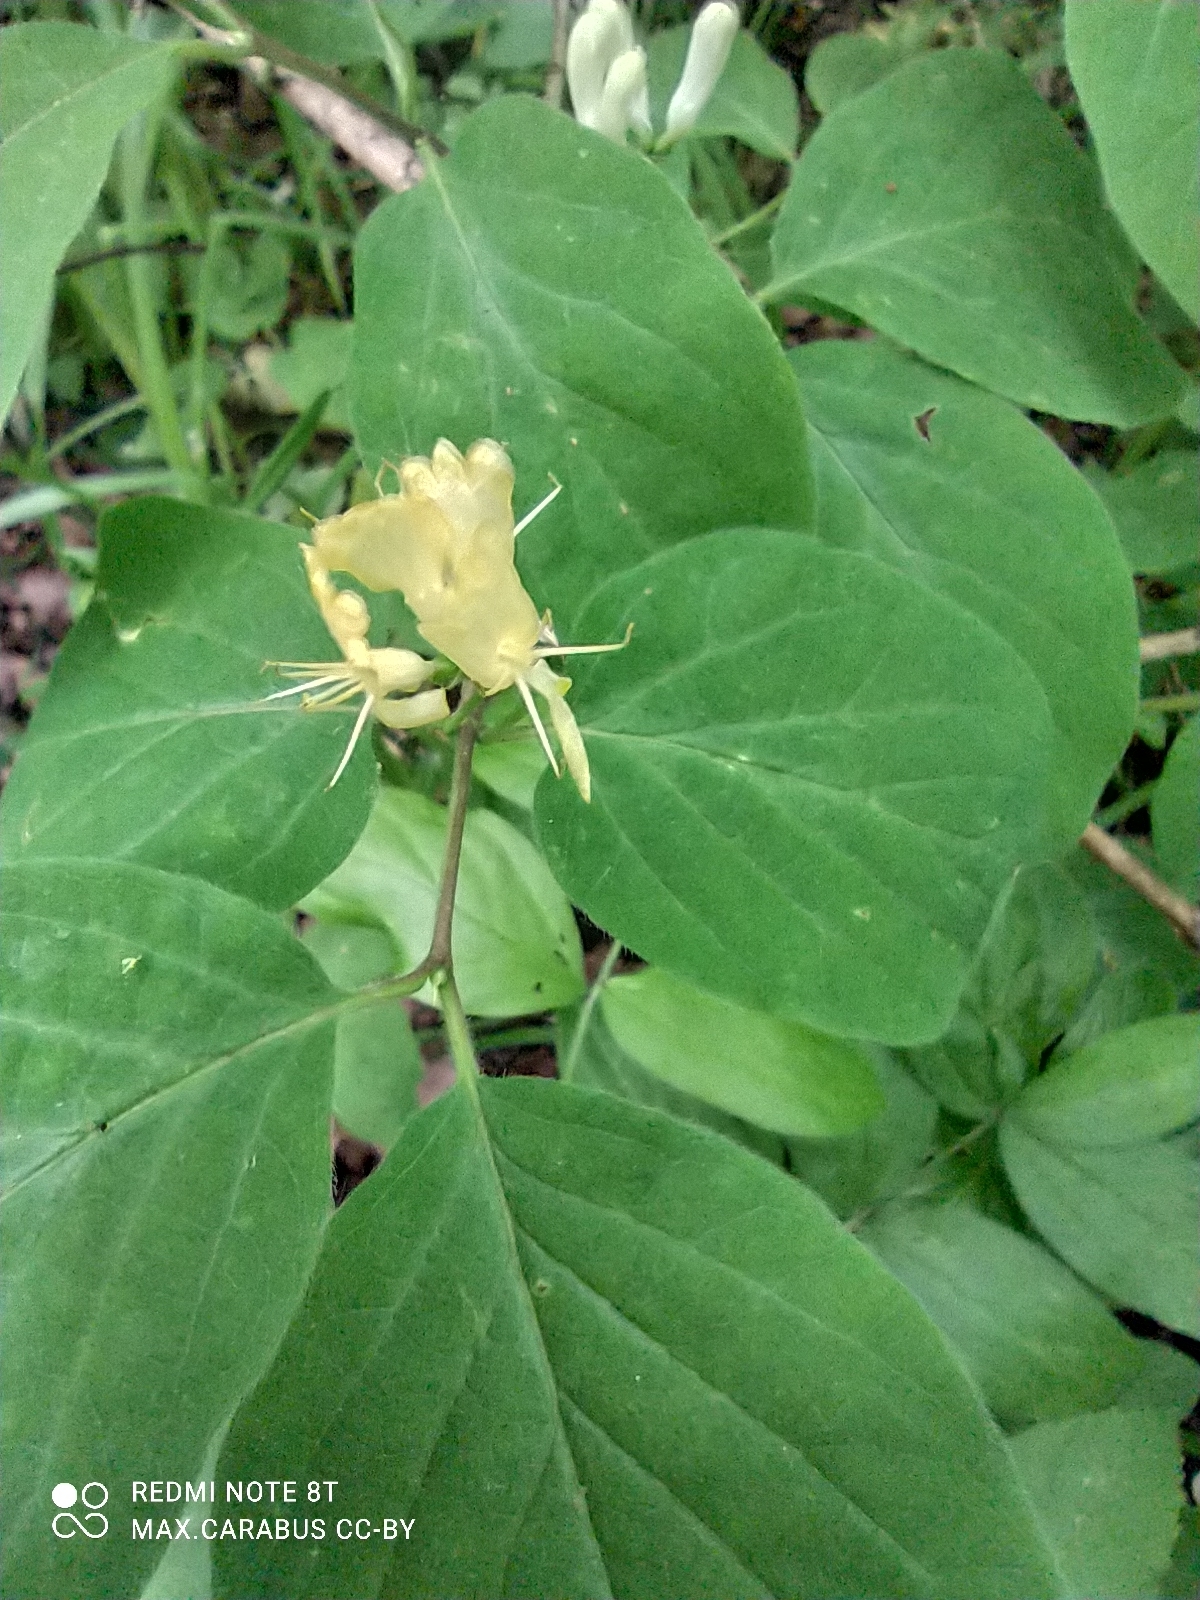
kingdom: Plantae
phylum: Tracheophyta
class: Magnoliopsida
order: Dipsacales
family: Caprifoliaceae
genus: Lonicera
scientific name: Lonicera xylosteum
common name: Fly honeysuckle
